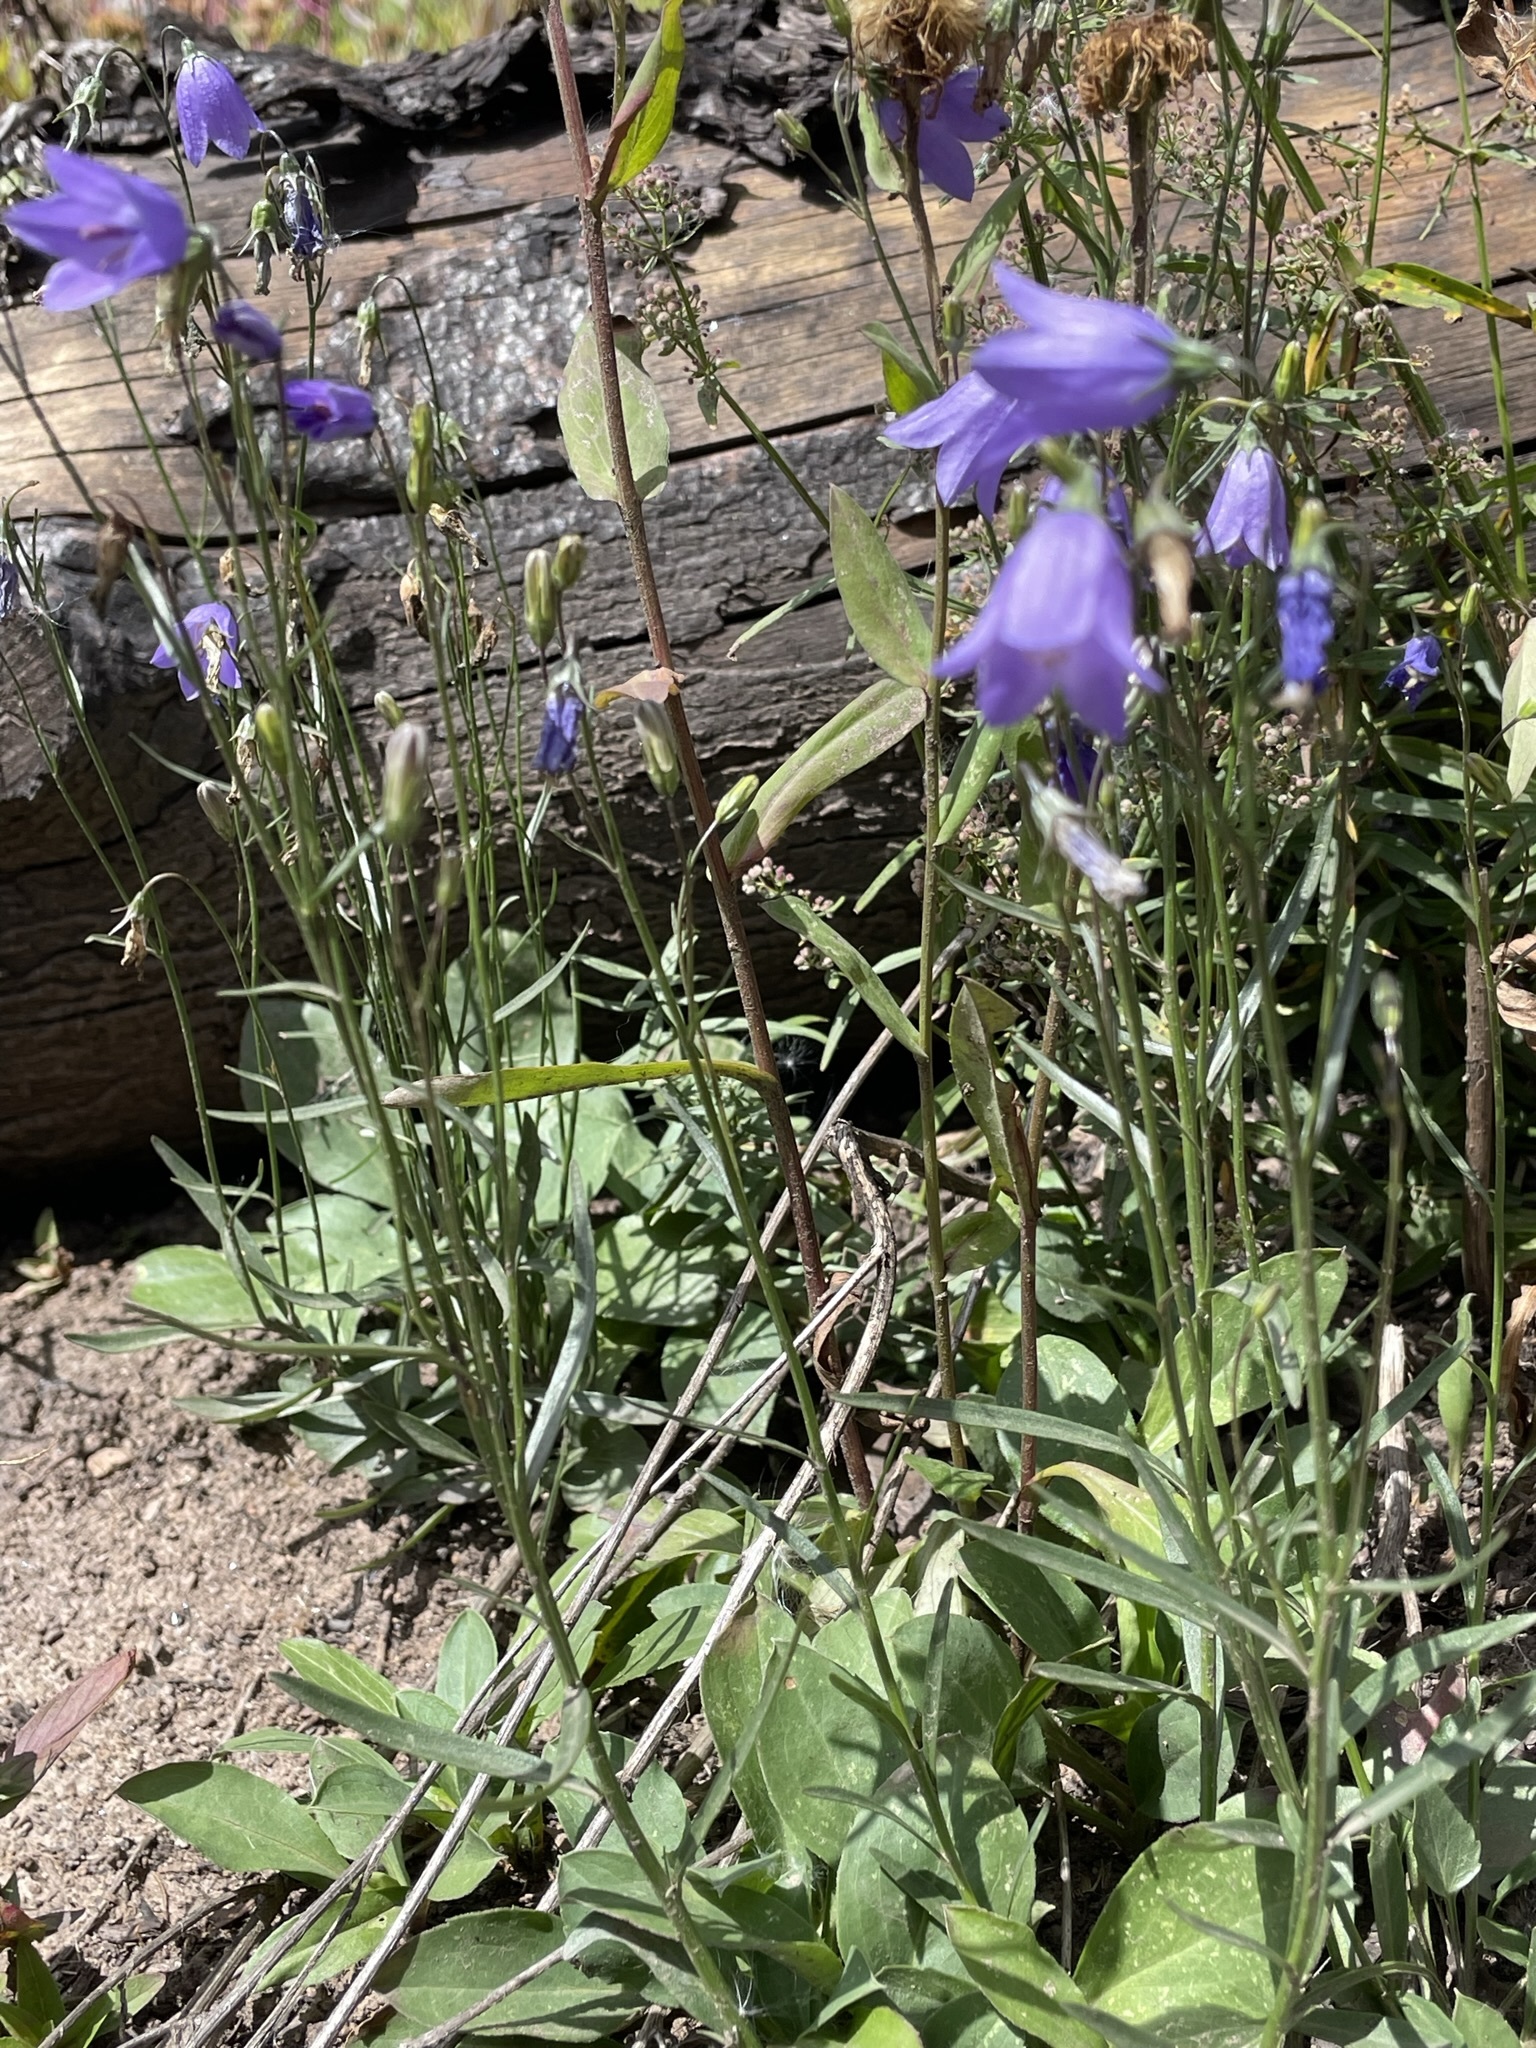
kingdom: Plantae
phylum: Tracheophyta
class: Magnoliopsida
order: Asterales
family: Campanulaceae
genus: Campanula
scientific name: Campanula petiolata
